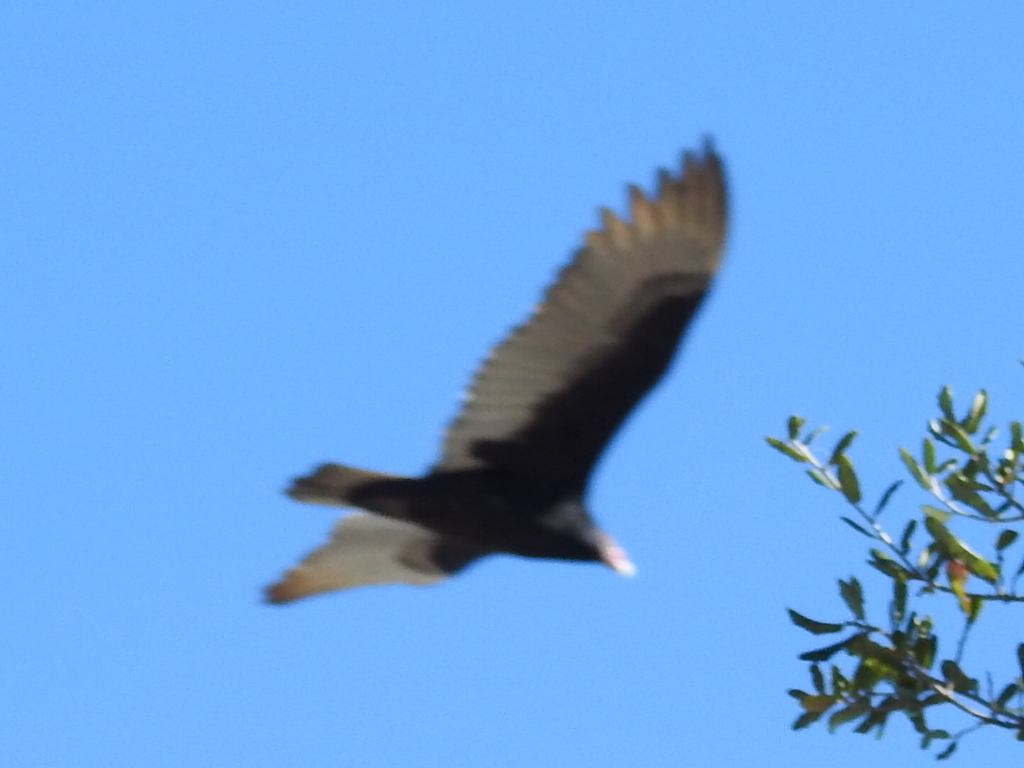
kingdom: Animalia
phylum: Chordata
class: Aves
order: Accipitriformes
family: Cathartidae
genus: Cathartes
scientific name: Cathartes aura
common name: Turkey vulture
